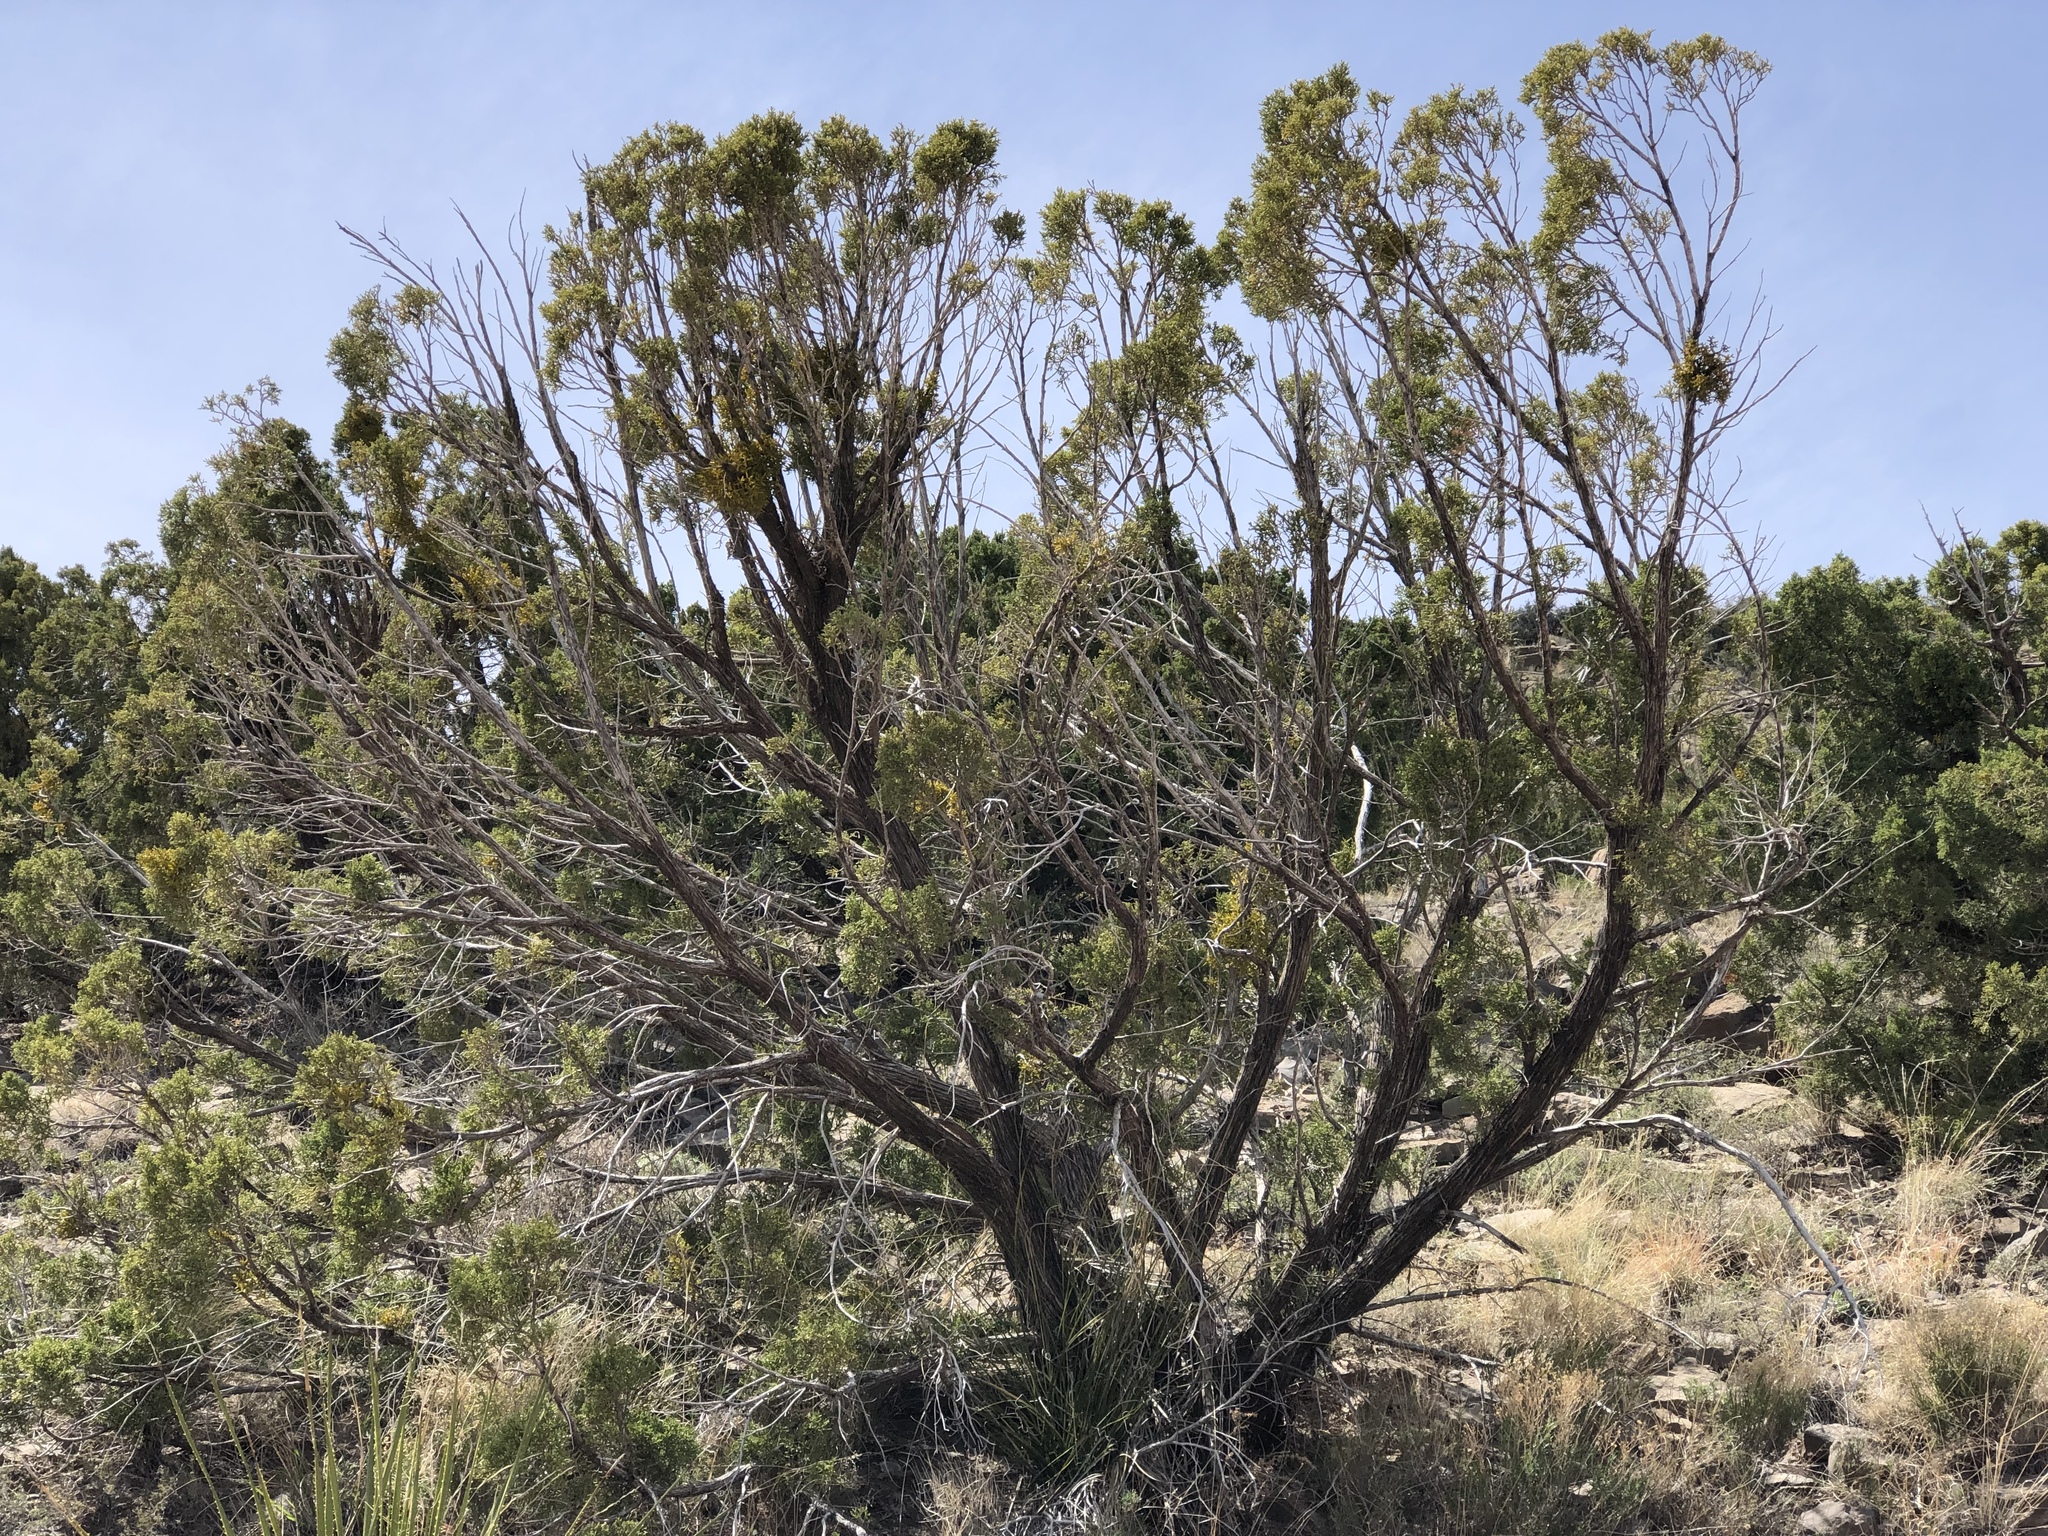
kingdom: Plantae
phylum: Tracheophyta
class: Pinopsida
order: Pinales
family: Cupressaceae
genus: Juniperus
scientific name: Juniperus monosperma
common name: One-seed juniper
